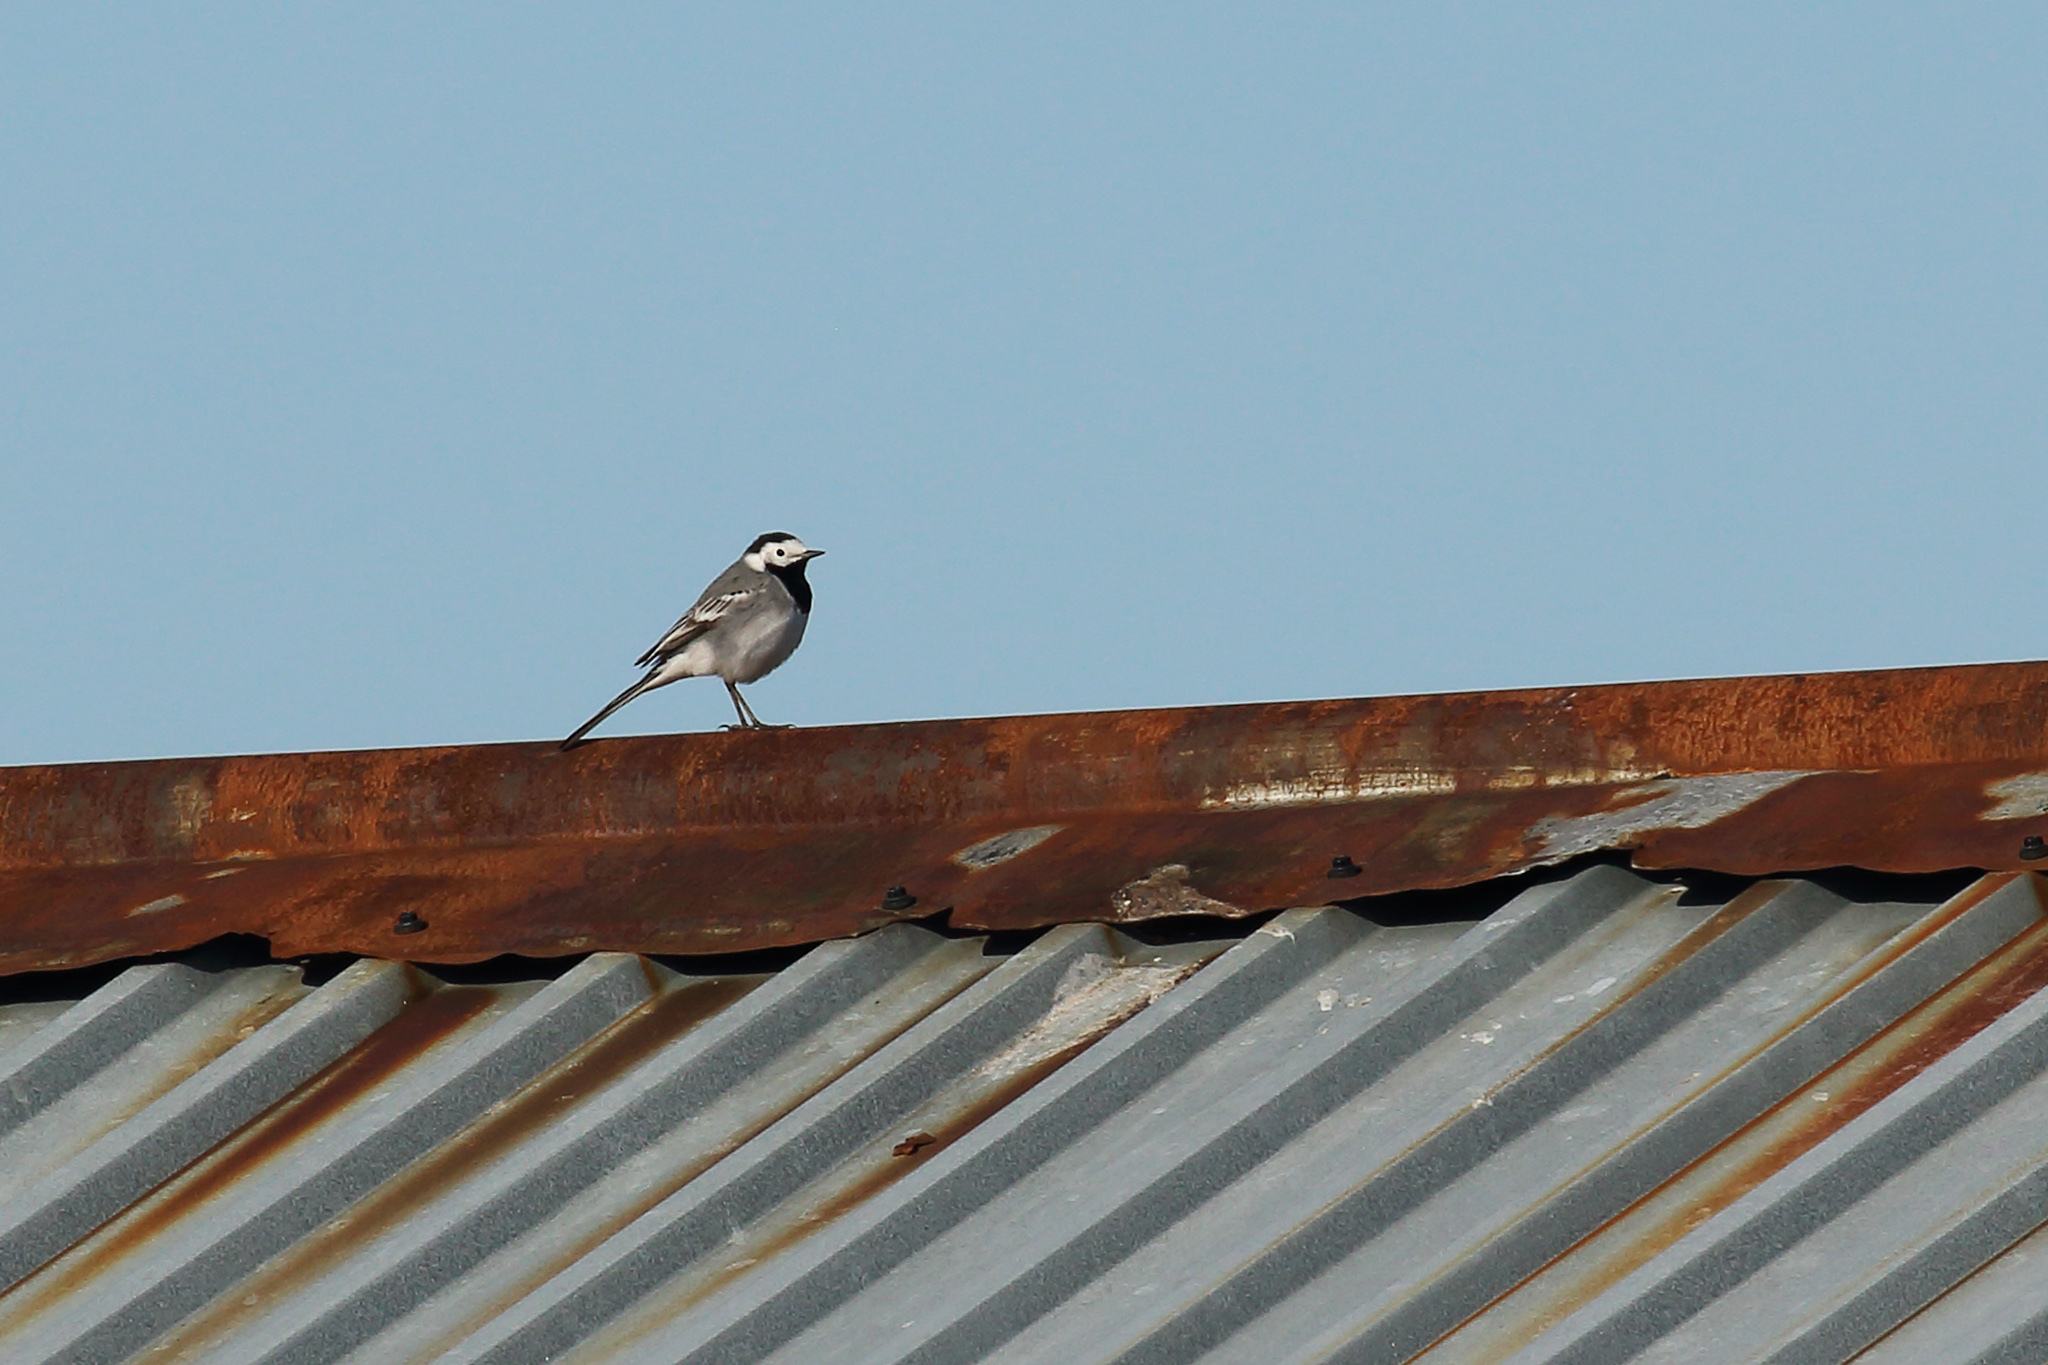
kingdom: Animalia
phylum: Chordata
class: Aves
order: Passeriformes
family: Motacillidae
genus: Motacilla
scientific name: Motacilla alba
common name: White wagtail
